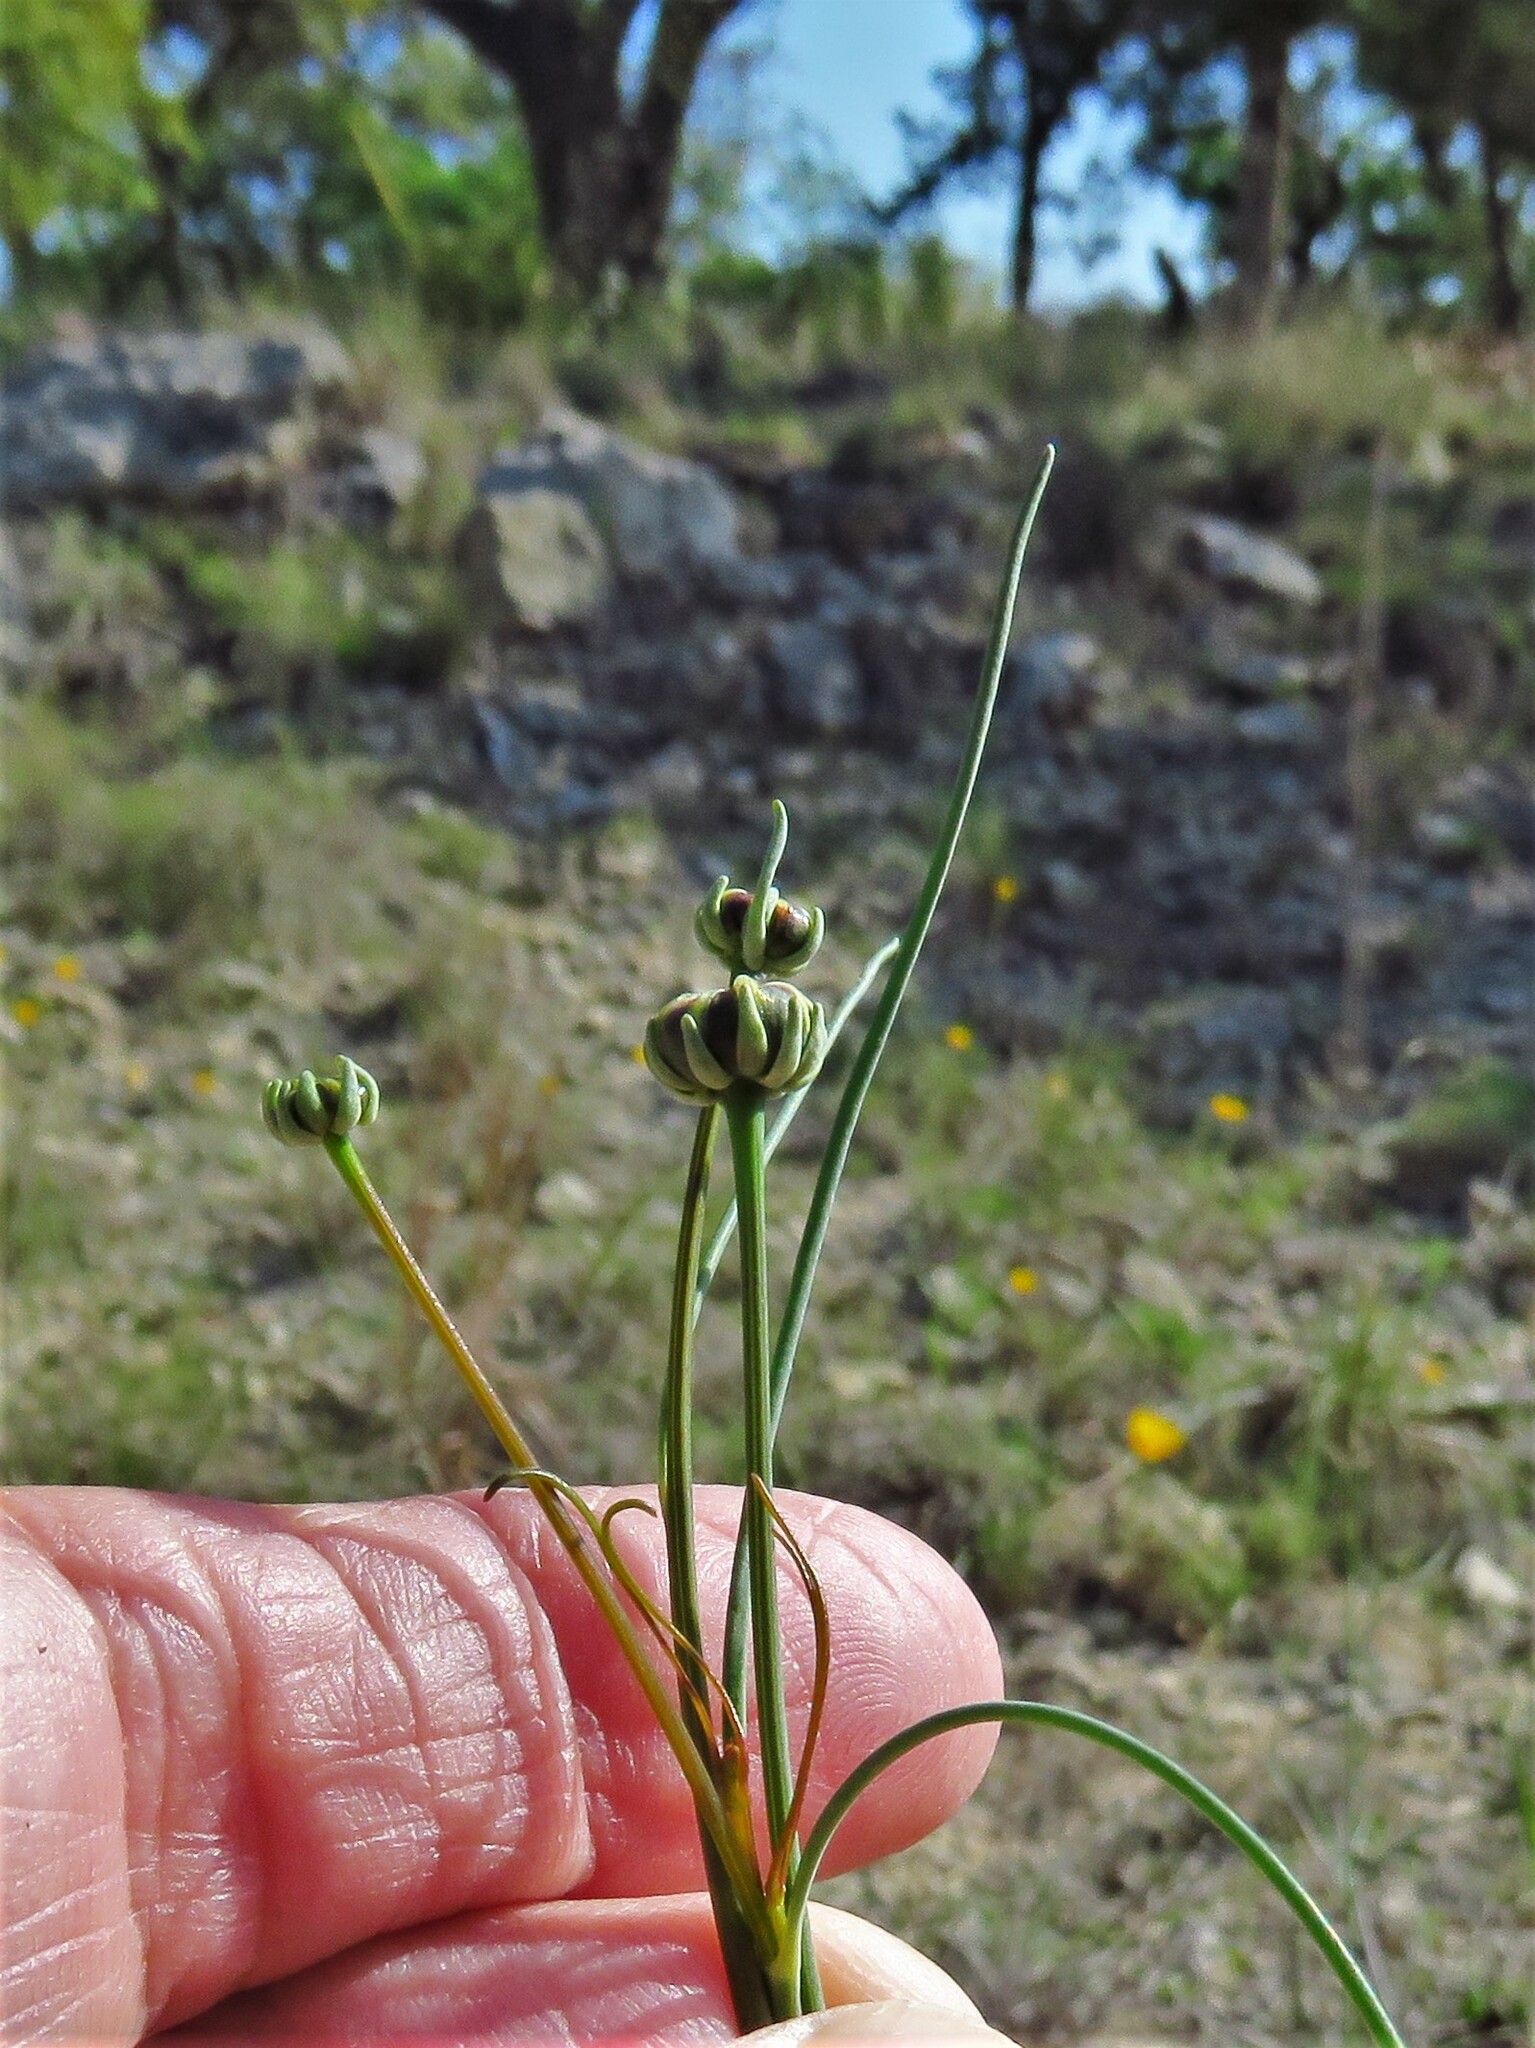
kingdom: Plantae
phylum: Tracheophyta
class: Magnoliopsida
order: Asterales
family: Asteraceae
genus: Thelesperma
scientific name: Thelesperma simplicifolium
